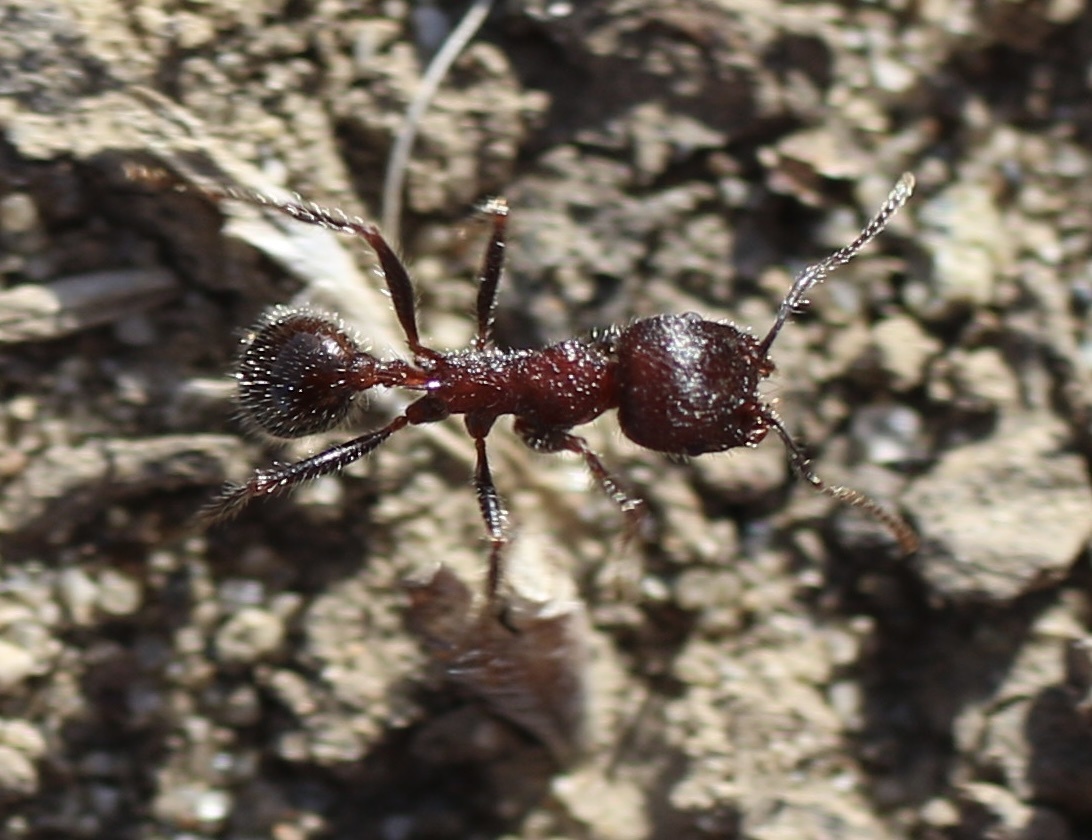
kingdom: Animalia
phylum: Arthropoda
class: Insecta
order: Hymenoptera
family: Formicidae
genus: Veromessor
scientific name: Veromessor andrei
